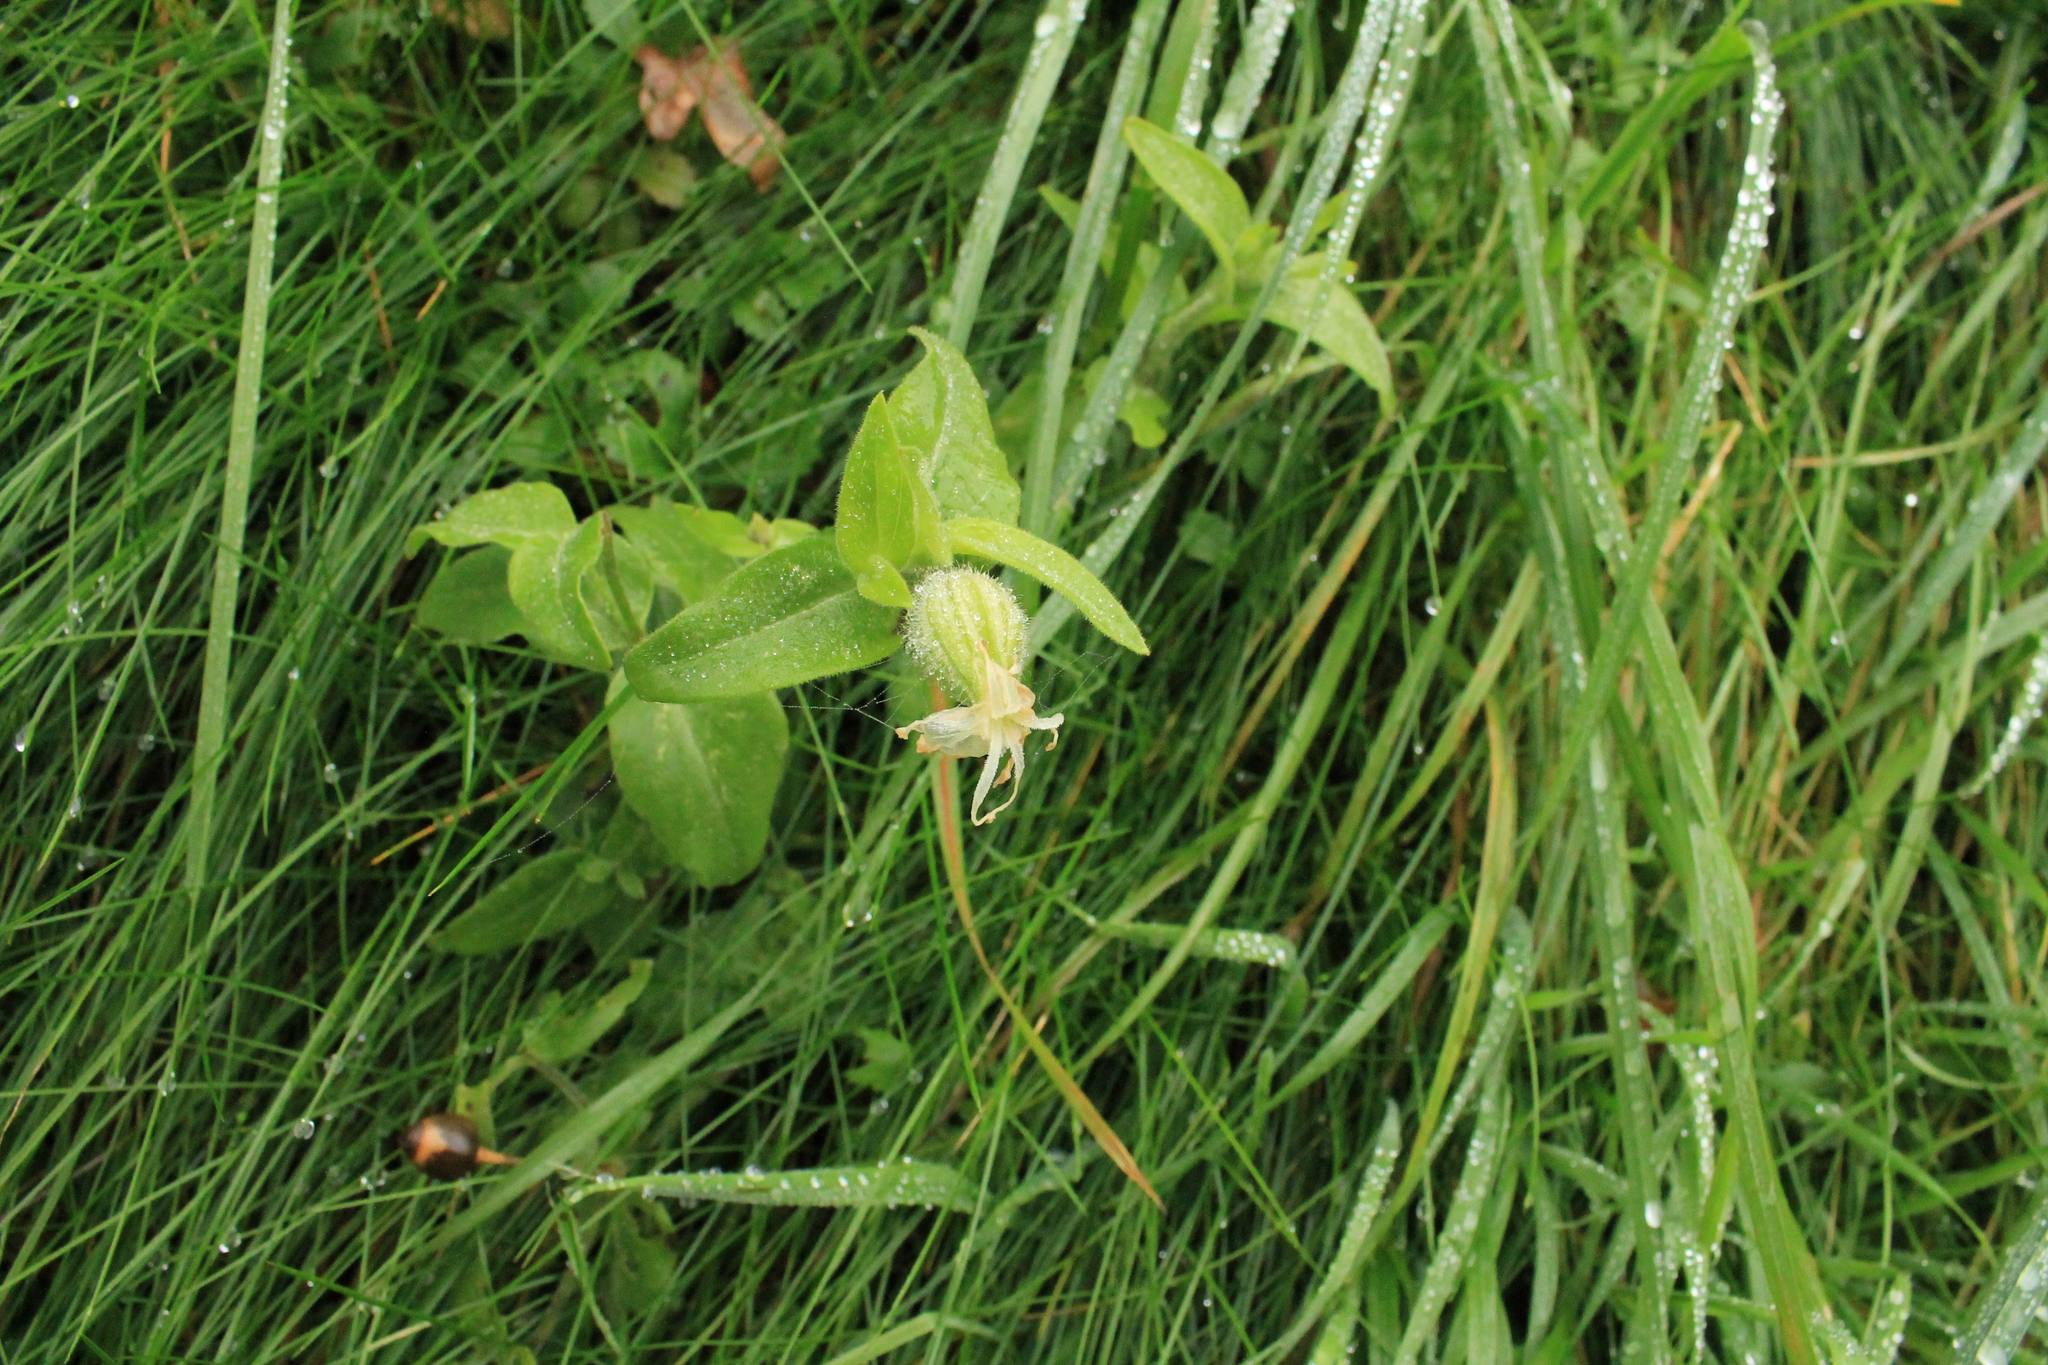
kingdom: Plantae
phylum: Tracheophyta
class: Magnoliopsida
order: Caryophyllales
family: Caryophyllaceae
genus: Silene
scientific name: Silene latifolia
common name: White campion
